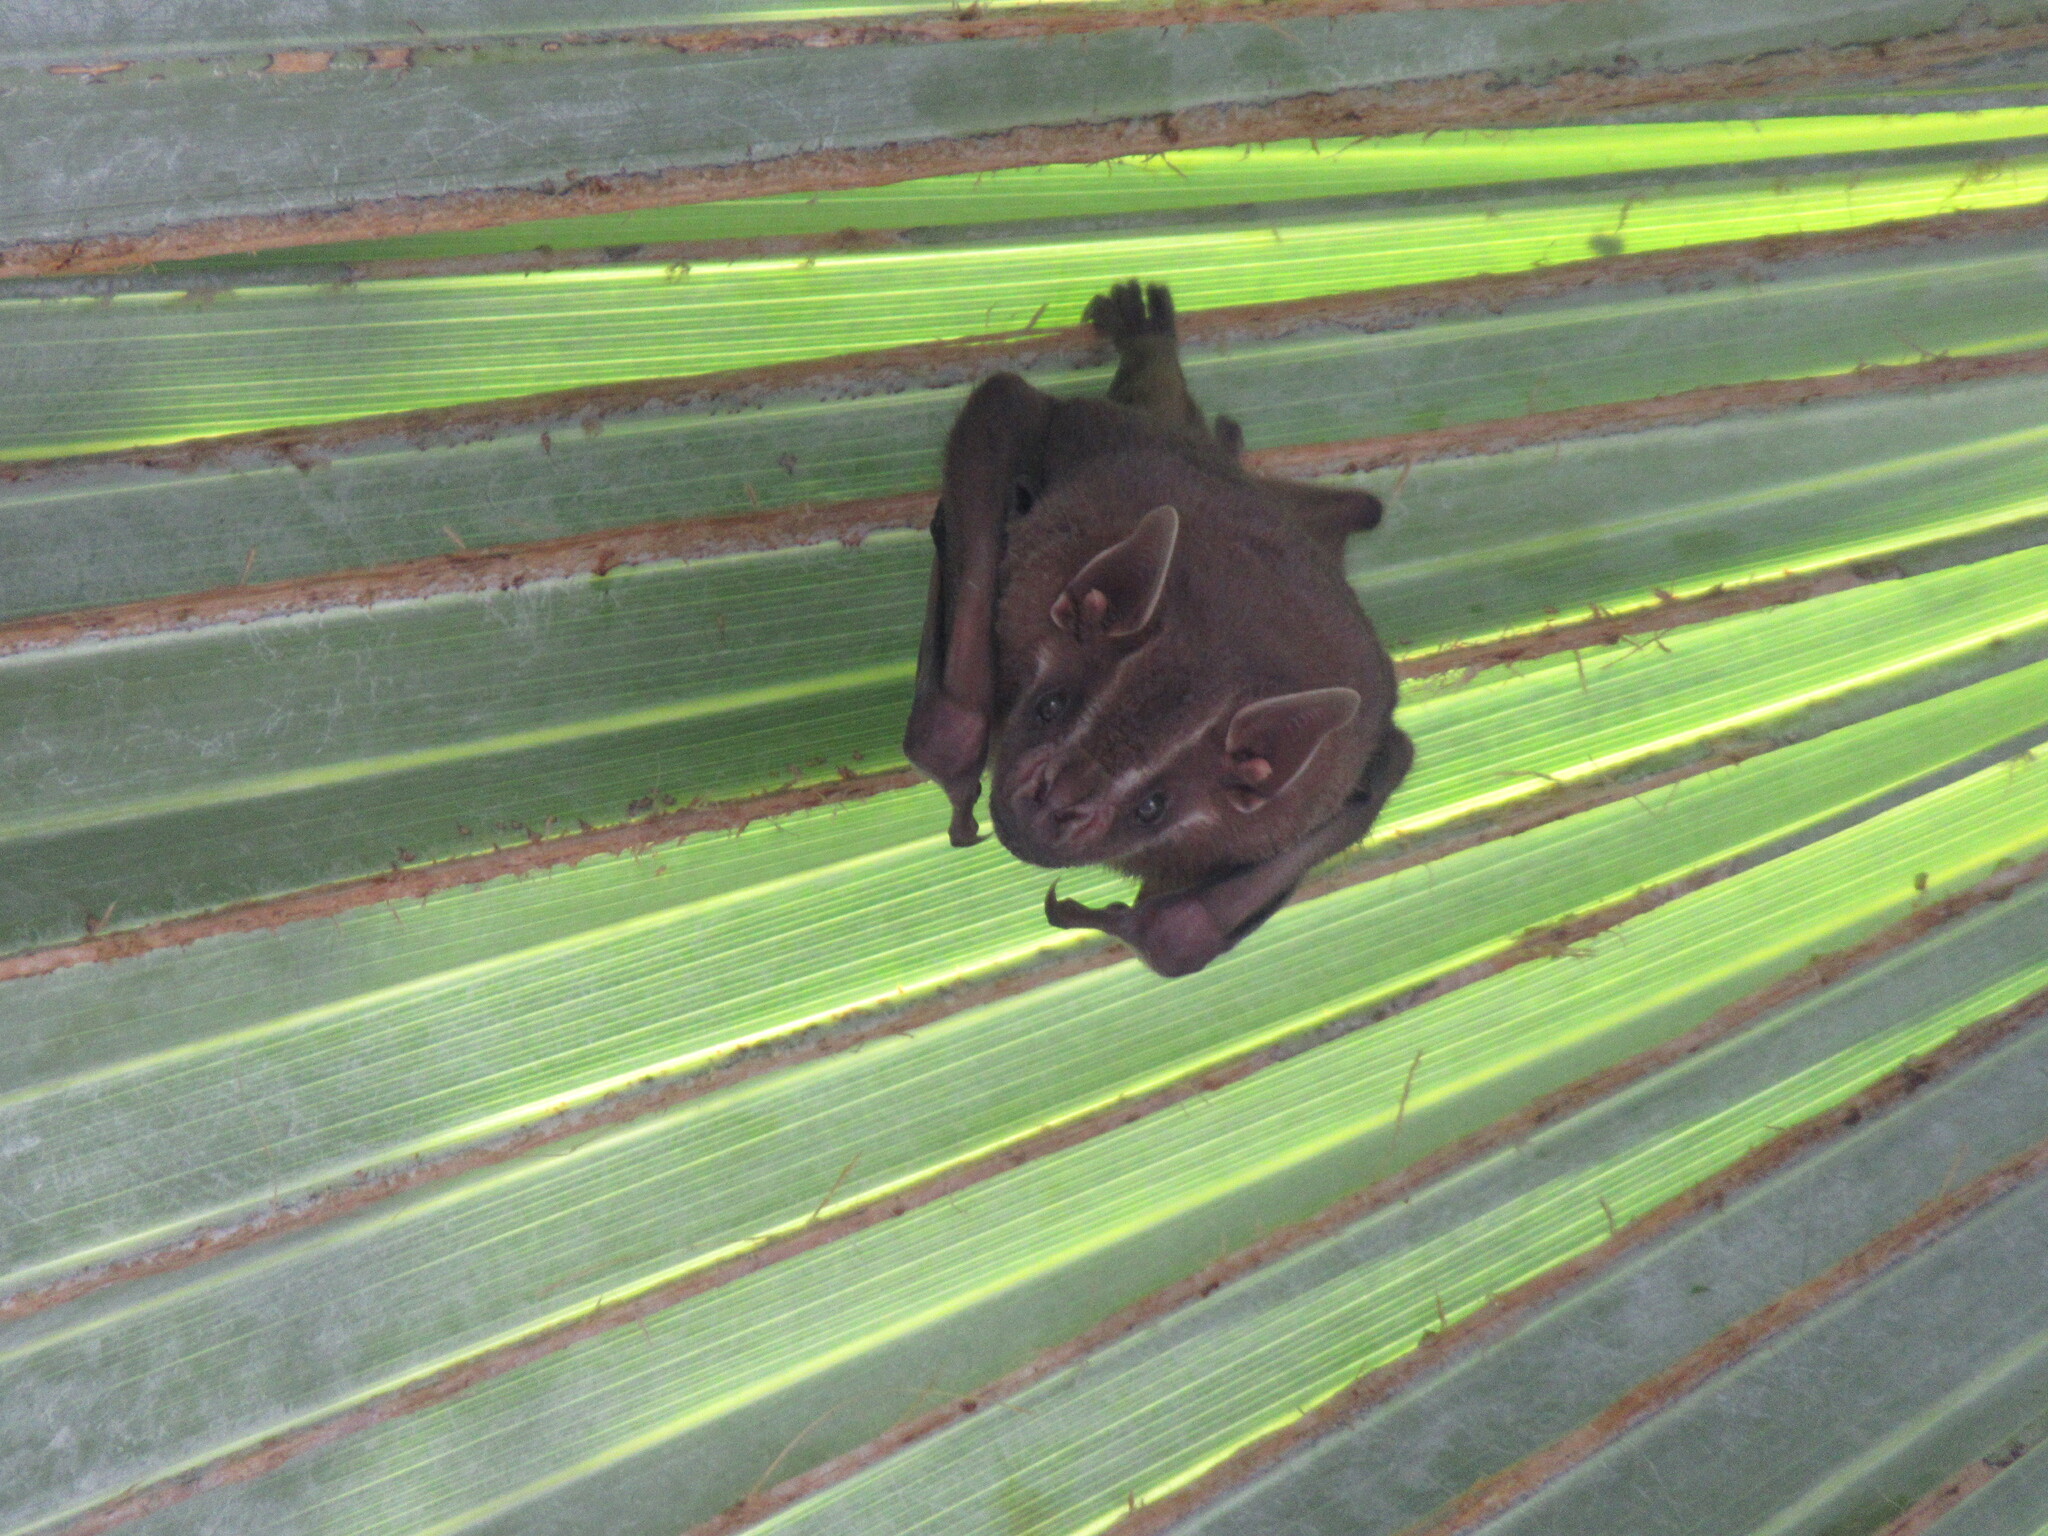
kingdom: Animalia
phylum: Chordata
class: Mammalia
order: Chiroptera
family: Phyllostomidae
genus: Artibeus
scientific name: Artibeus lituratus
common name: Great fruit-eating bat
